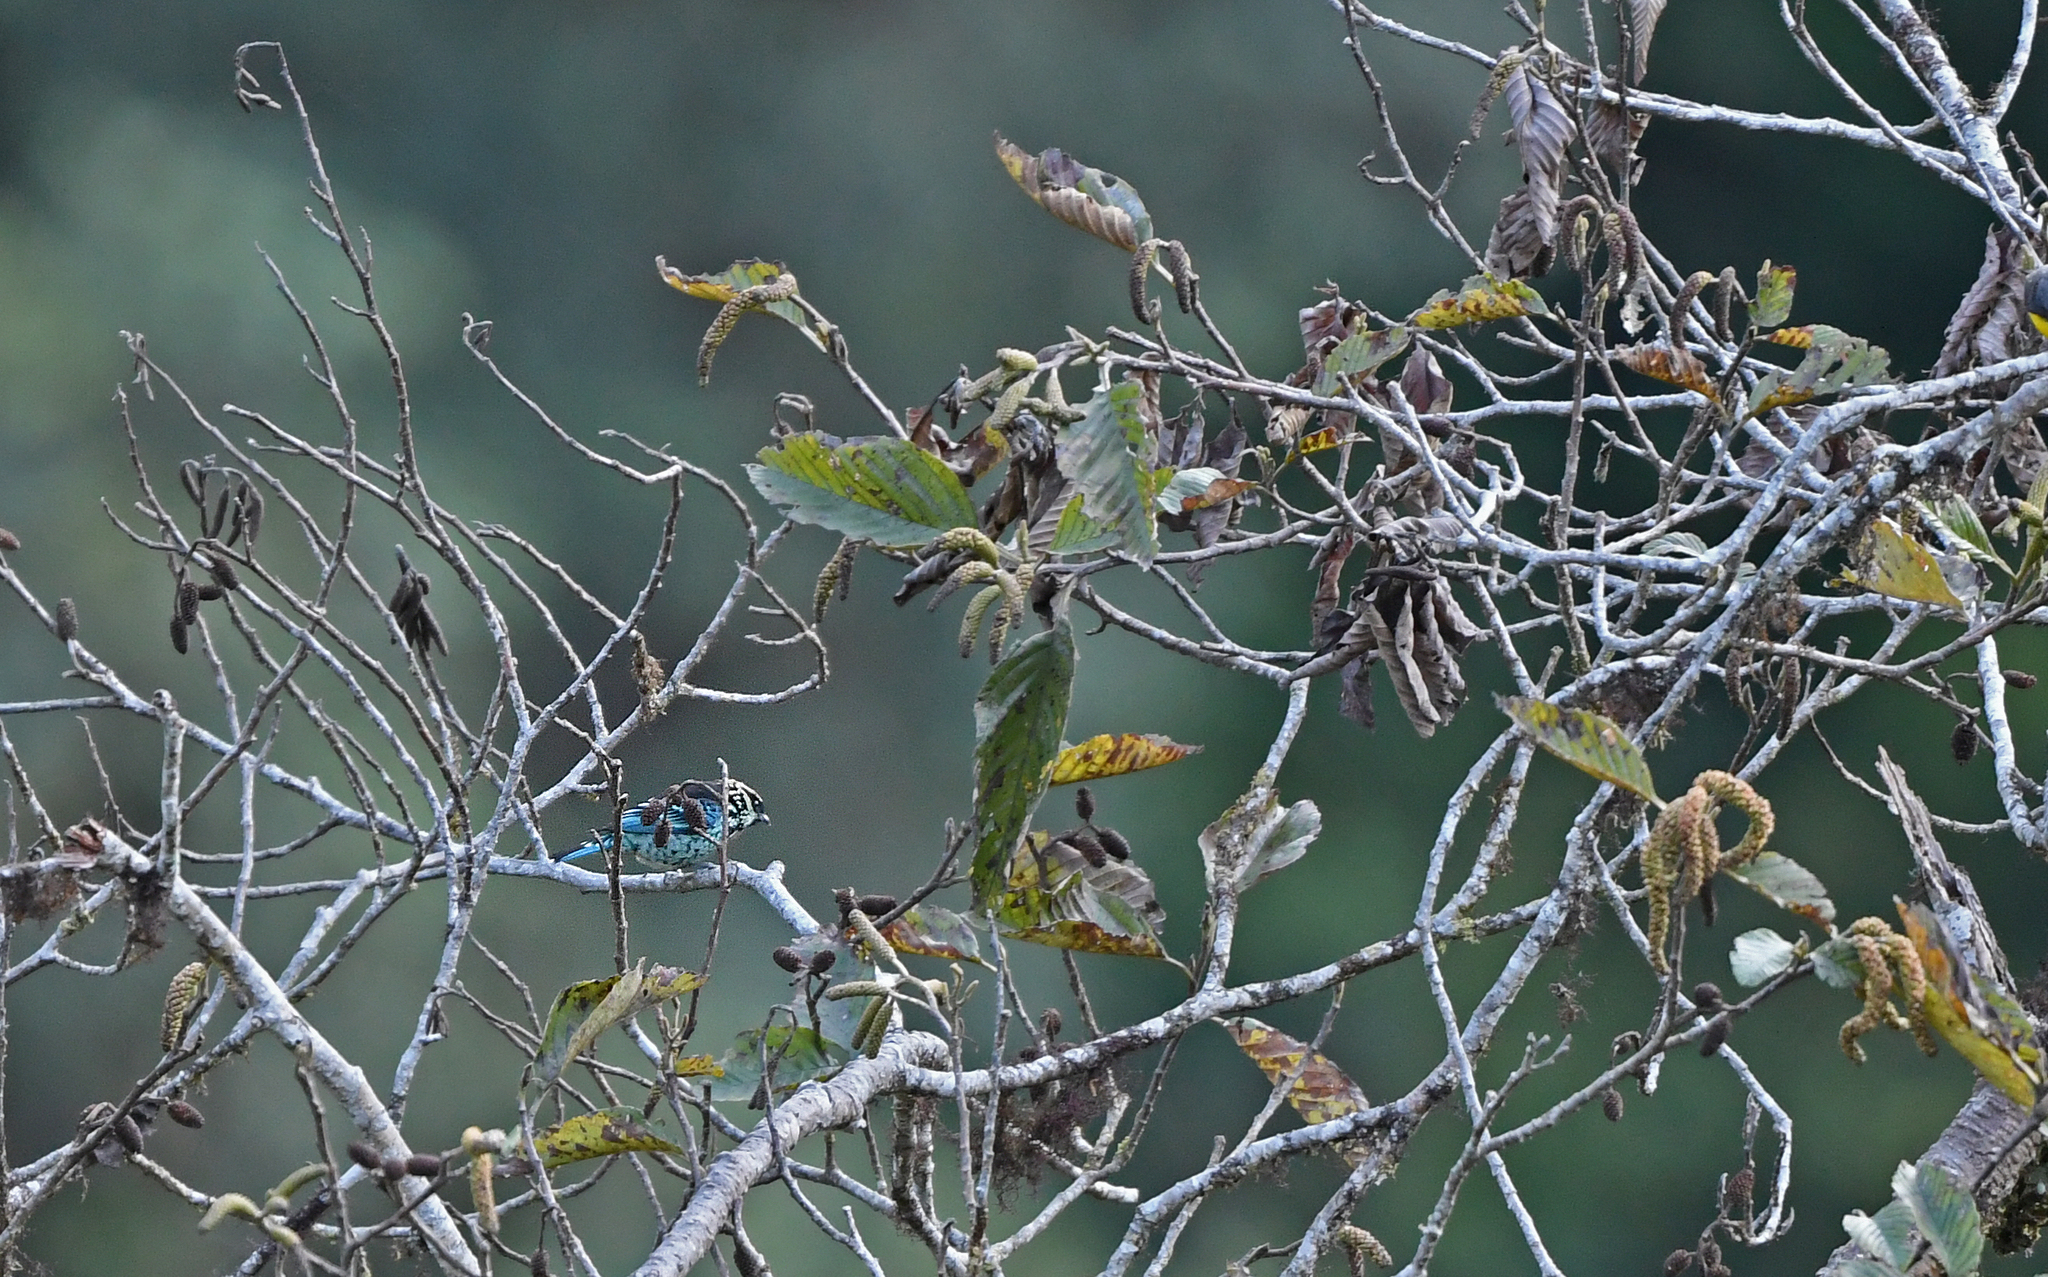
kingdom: Animalia
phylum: Chordata
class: Aves
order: Passeriformes
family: Thraupidae
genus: Tangara
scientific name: Tangara nigroviridis
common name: Beryl-spangled tanager
